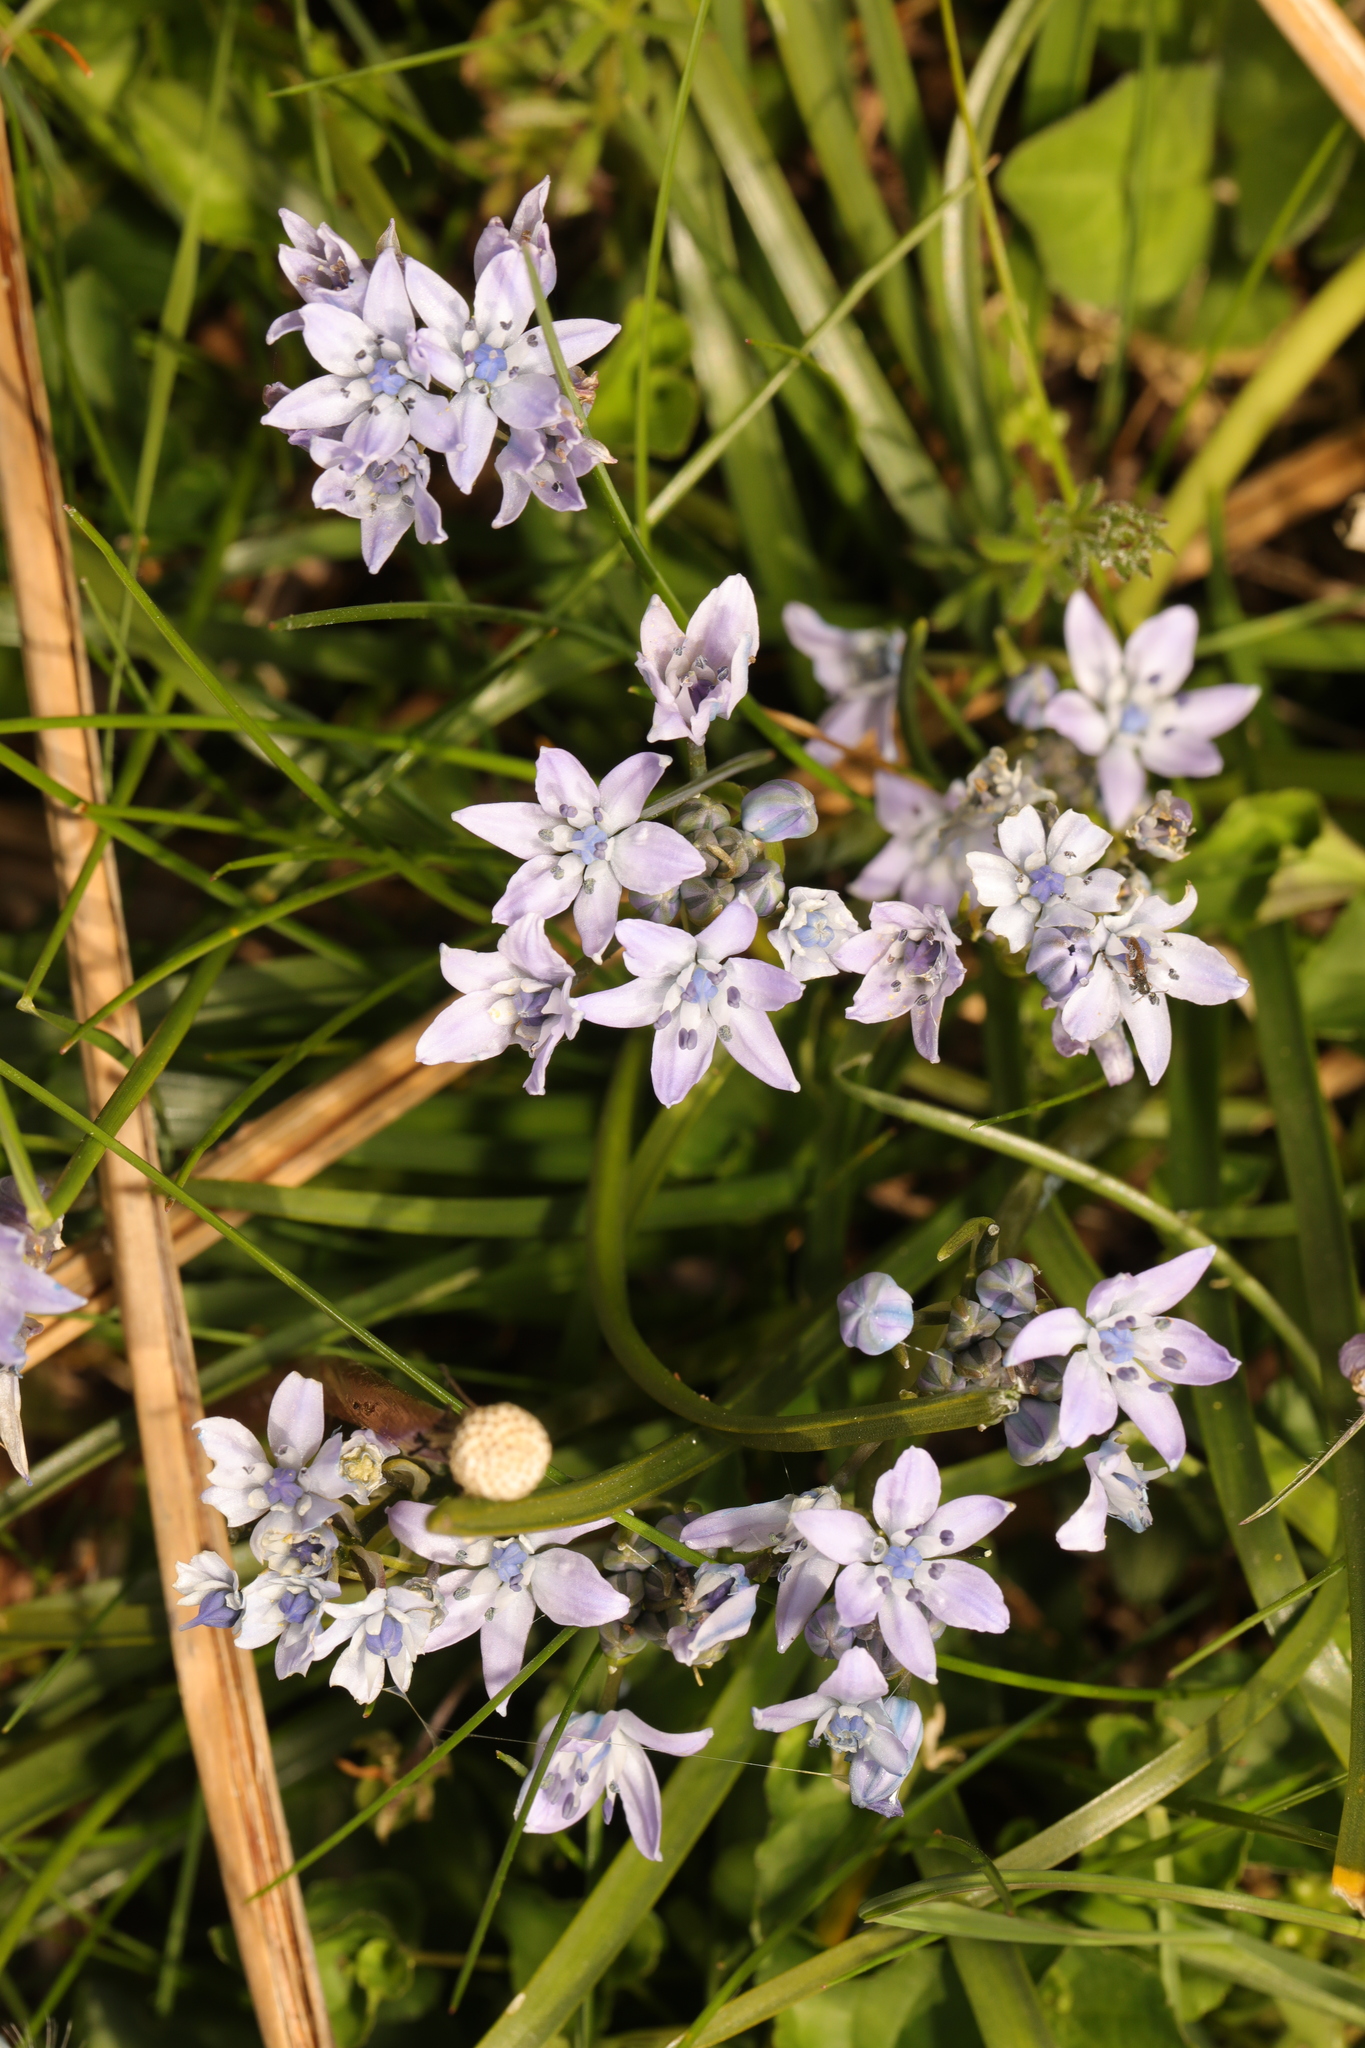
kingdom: Plantae
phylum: Tracheophyta
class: Liliopsida
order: Asparagales
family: Asparagaceae
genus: Scilla
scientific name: Scilla verna
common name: Spring squill
